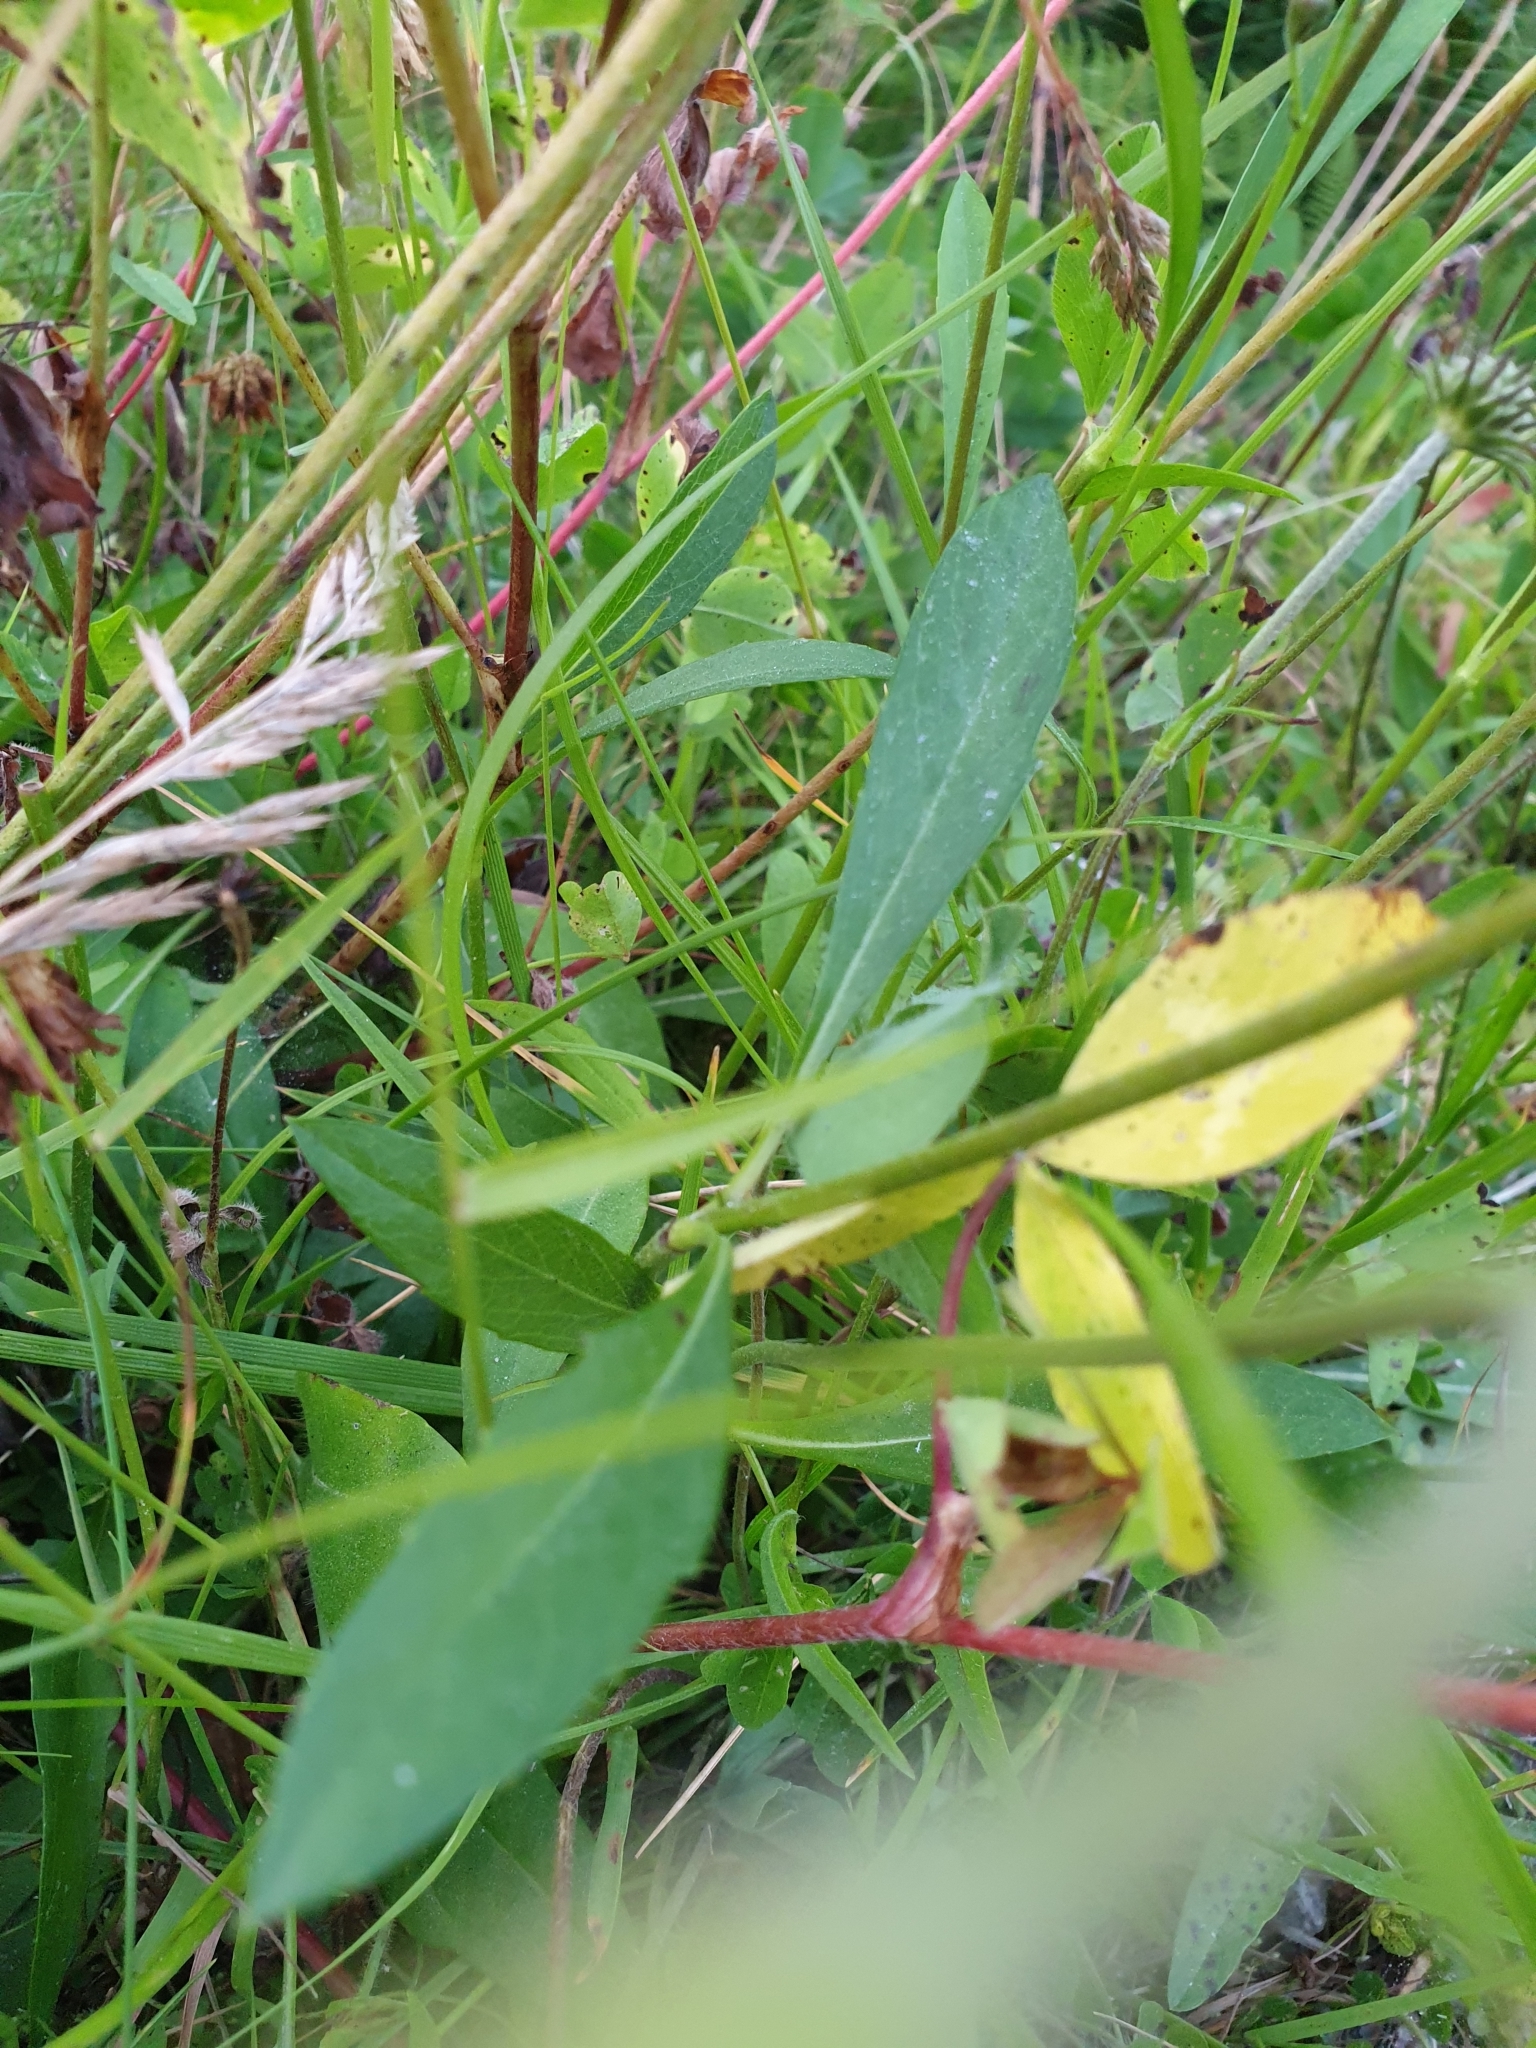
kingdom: Plantae
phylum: Tracheophyta
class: Magnoliopsida
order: Dipsacales
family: Caprifoliaceae
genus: Succisa
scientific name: Succisa pratensis
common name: Devil's-bit
